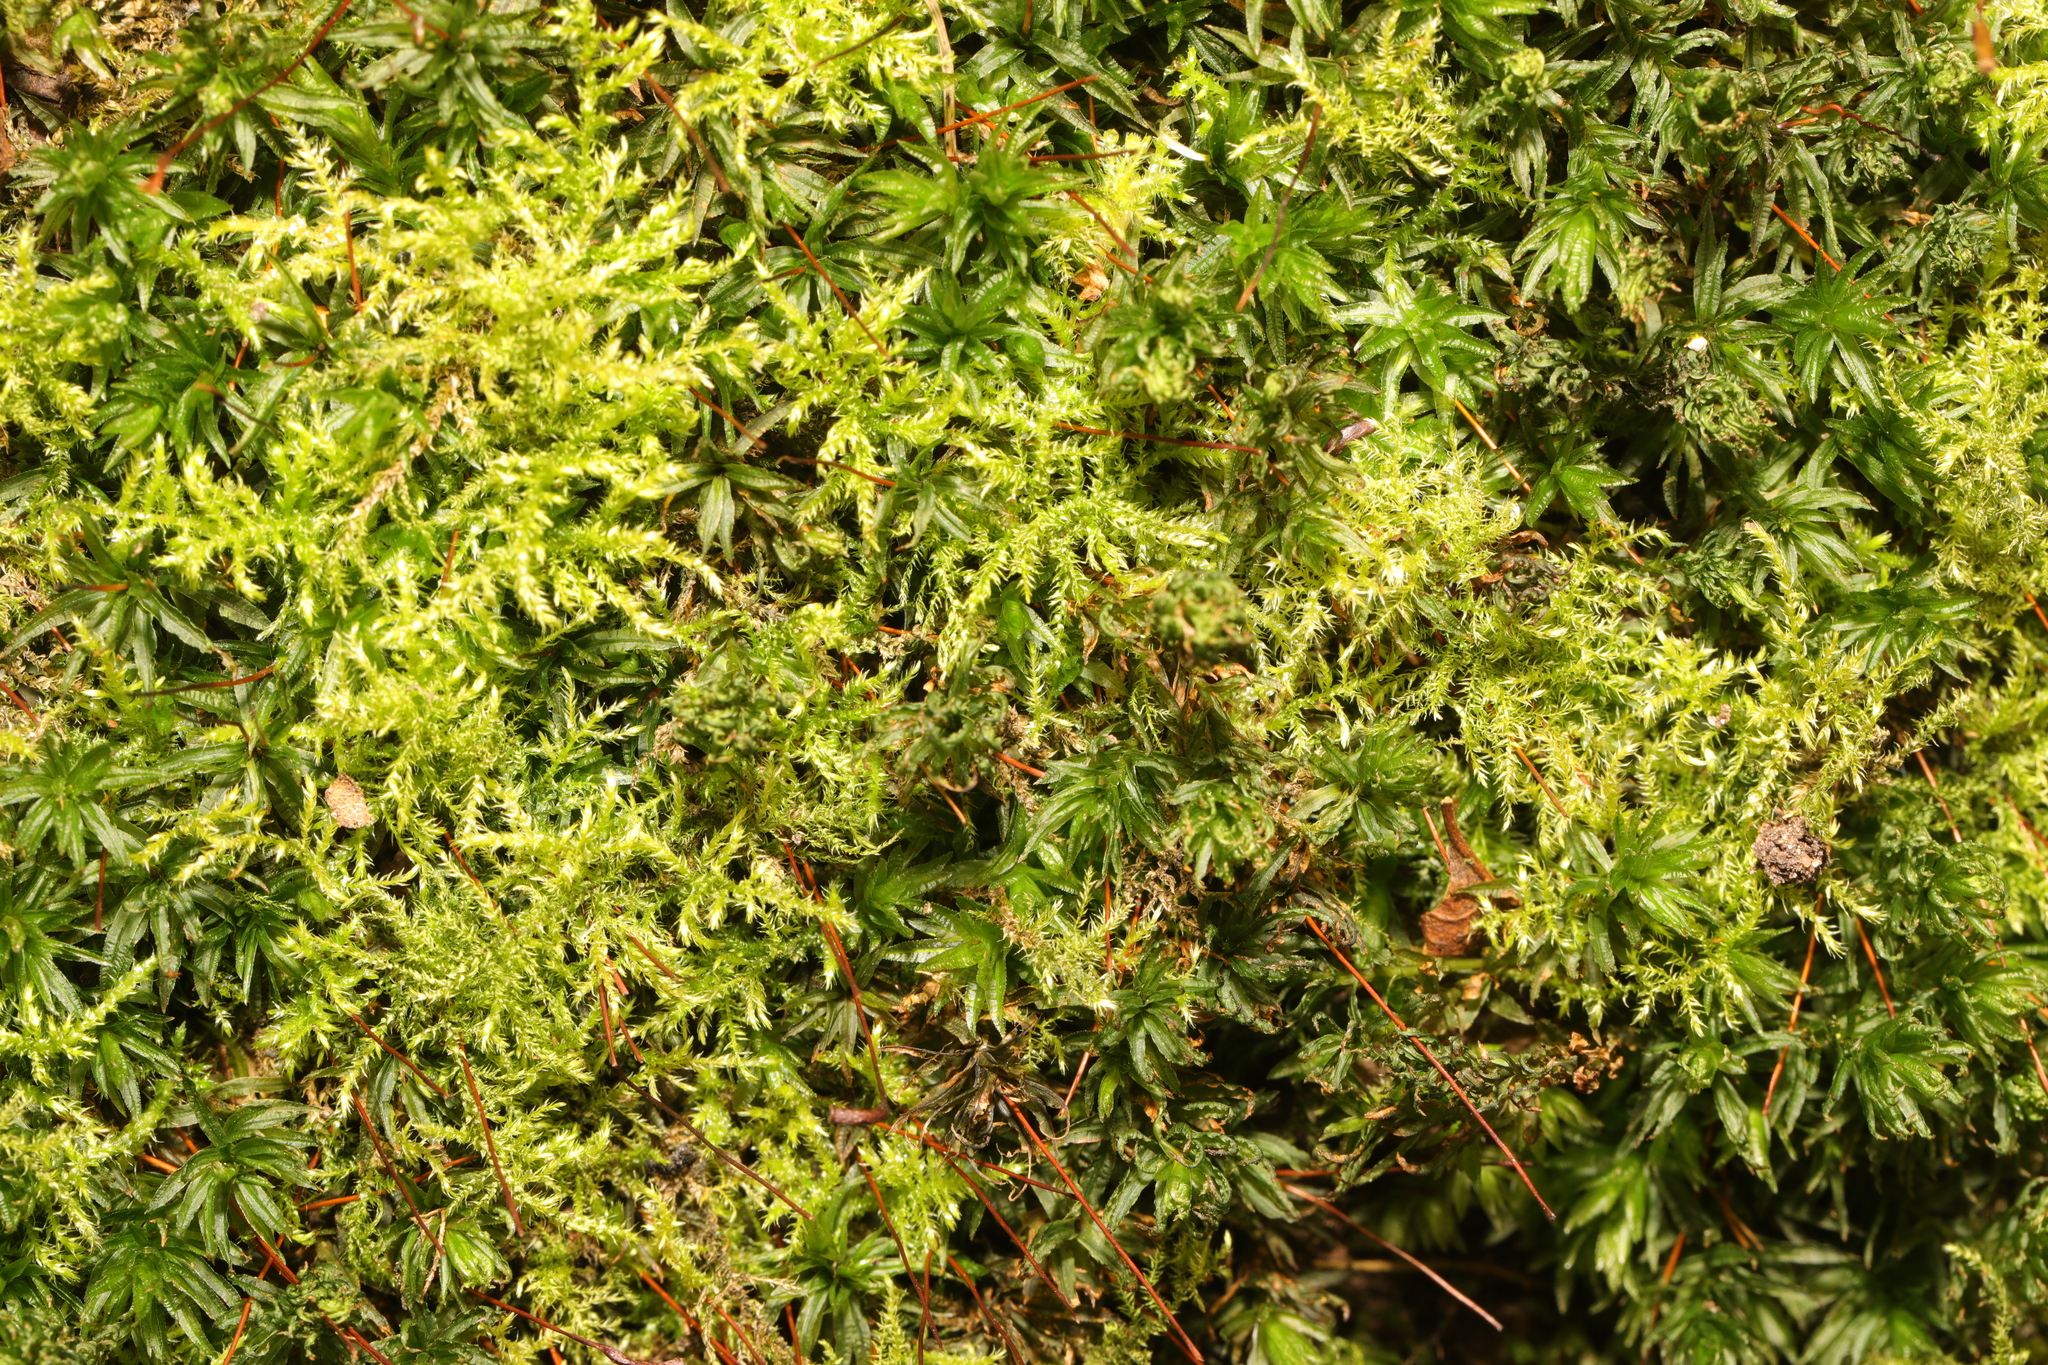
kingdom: Plantae
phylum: Bryophyta
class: Polytrichopsida
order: Polytrichales
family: Polytrichaceae
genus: Atrichum
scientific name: Atrichum undulatum
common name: Common smoothcap
